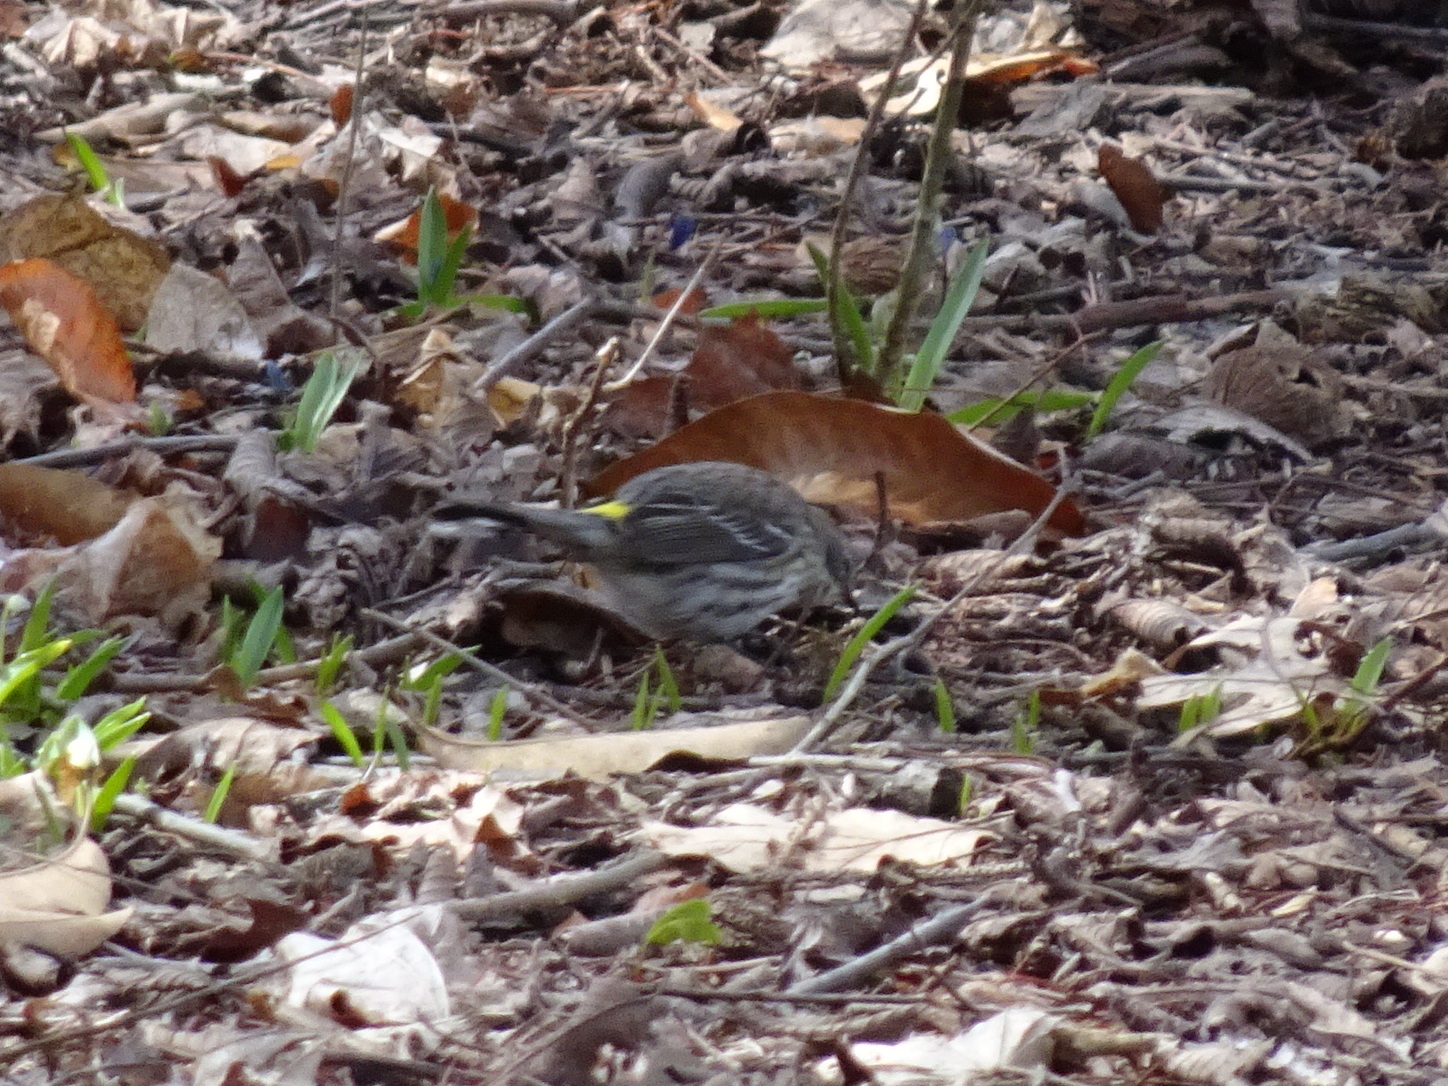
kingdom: Animalia
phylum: Chordata
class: Aves
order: Passeriformes
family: Parulidae
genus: Setophaga
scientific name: Setophaga coronata
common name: Myrtle warbler
